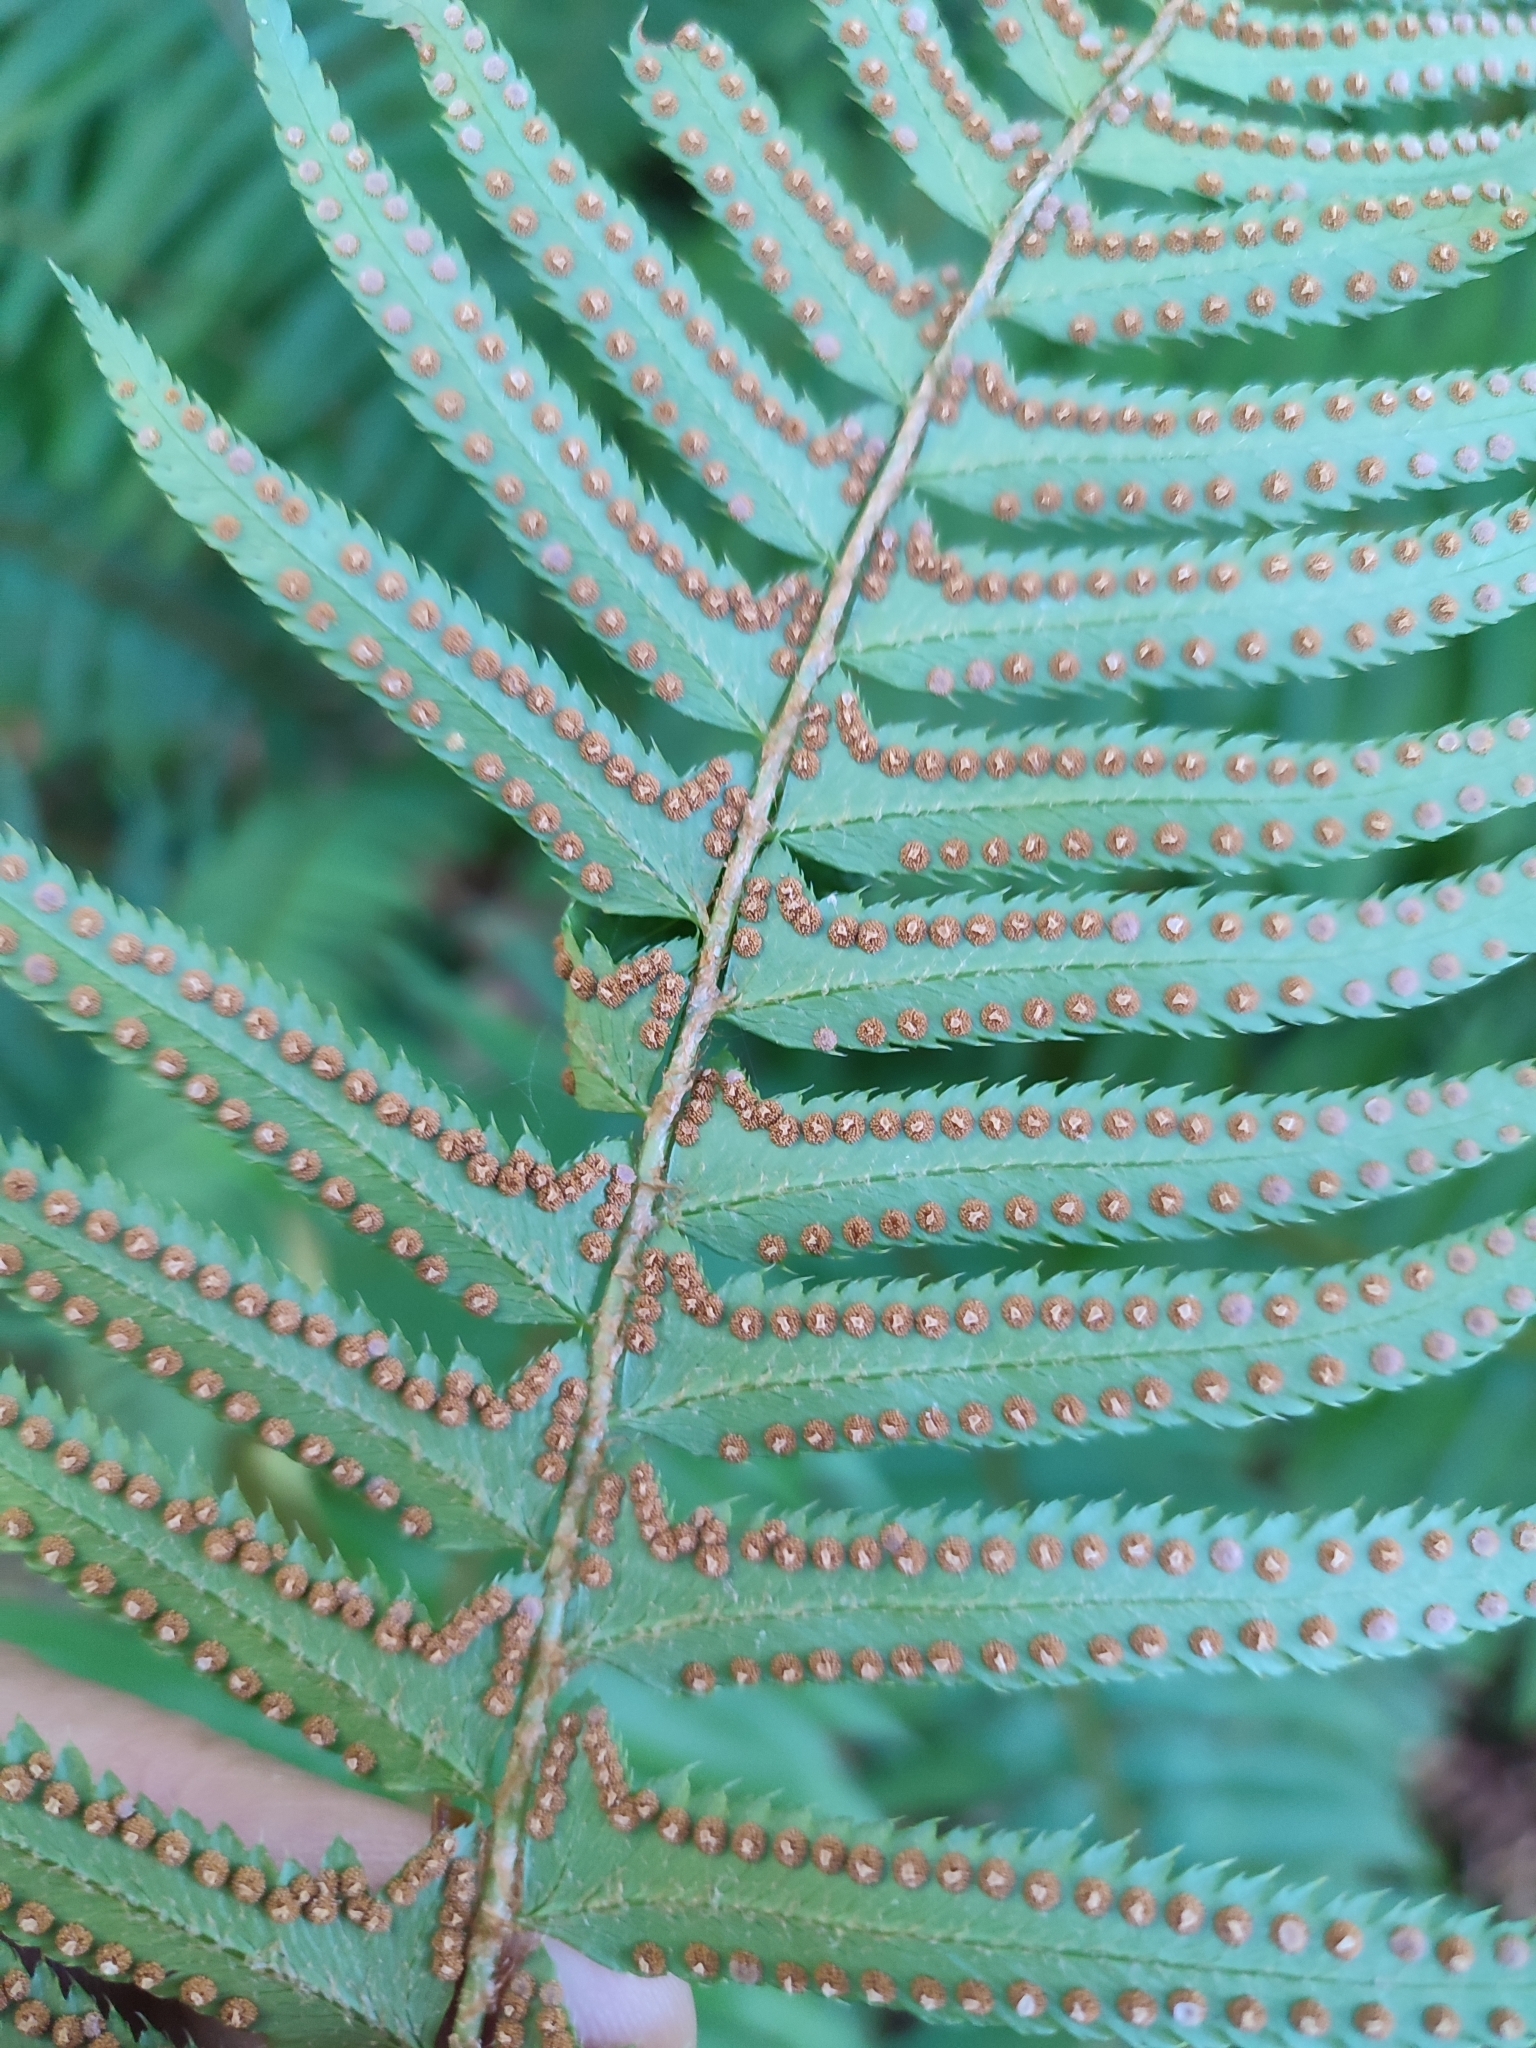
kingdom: Plantae
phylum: Tracheophyta
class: Polypodiopsida
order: Polypodiales
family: Dryopteridaceae
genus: Polystichum
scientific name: Polystichum munitum
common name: Western sword-fern
